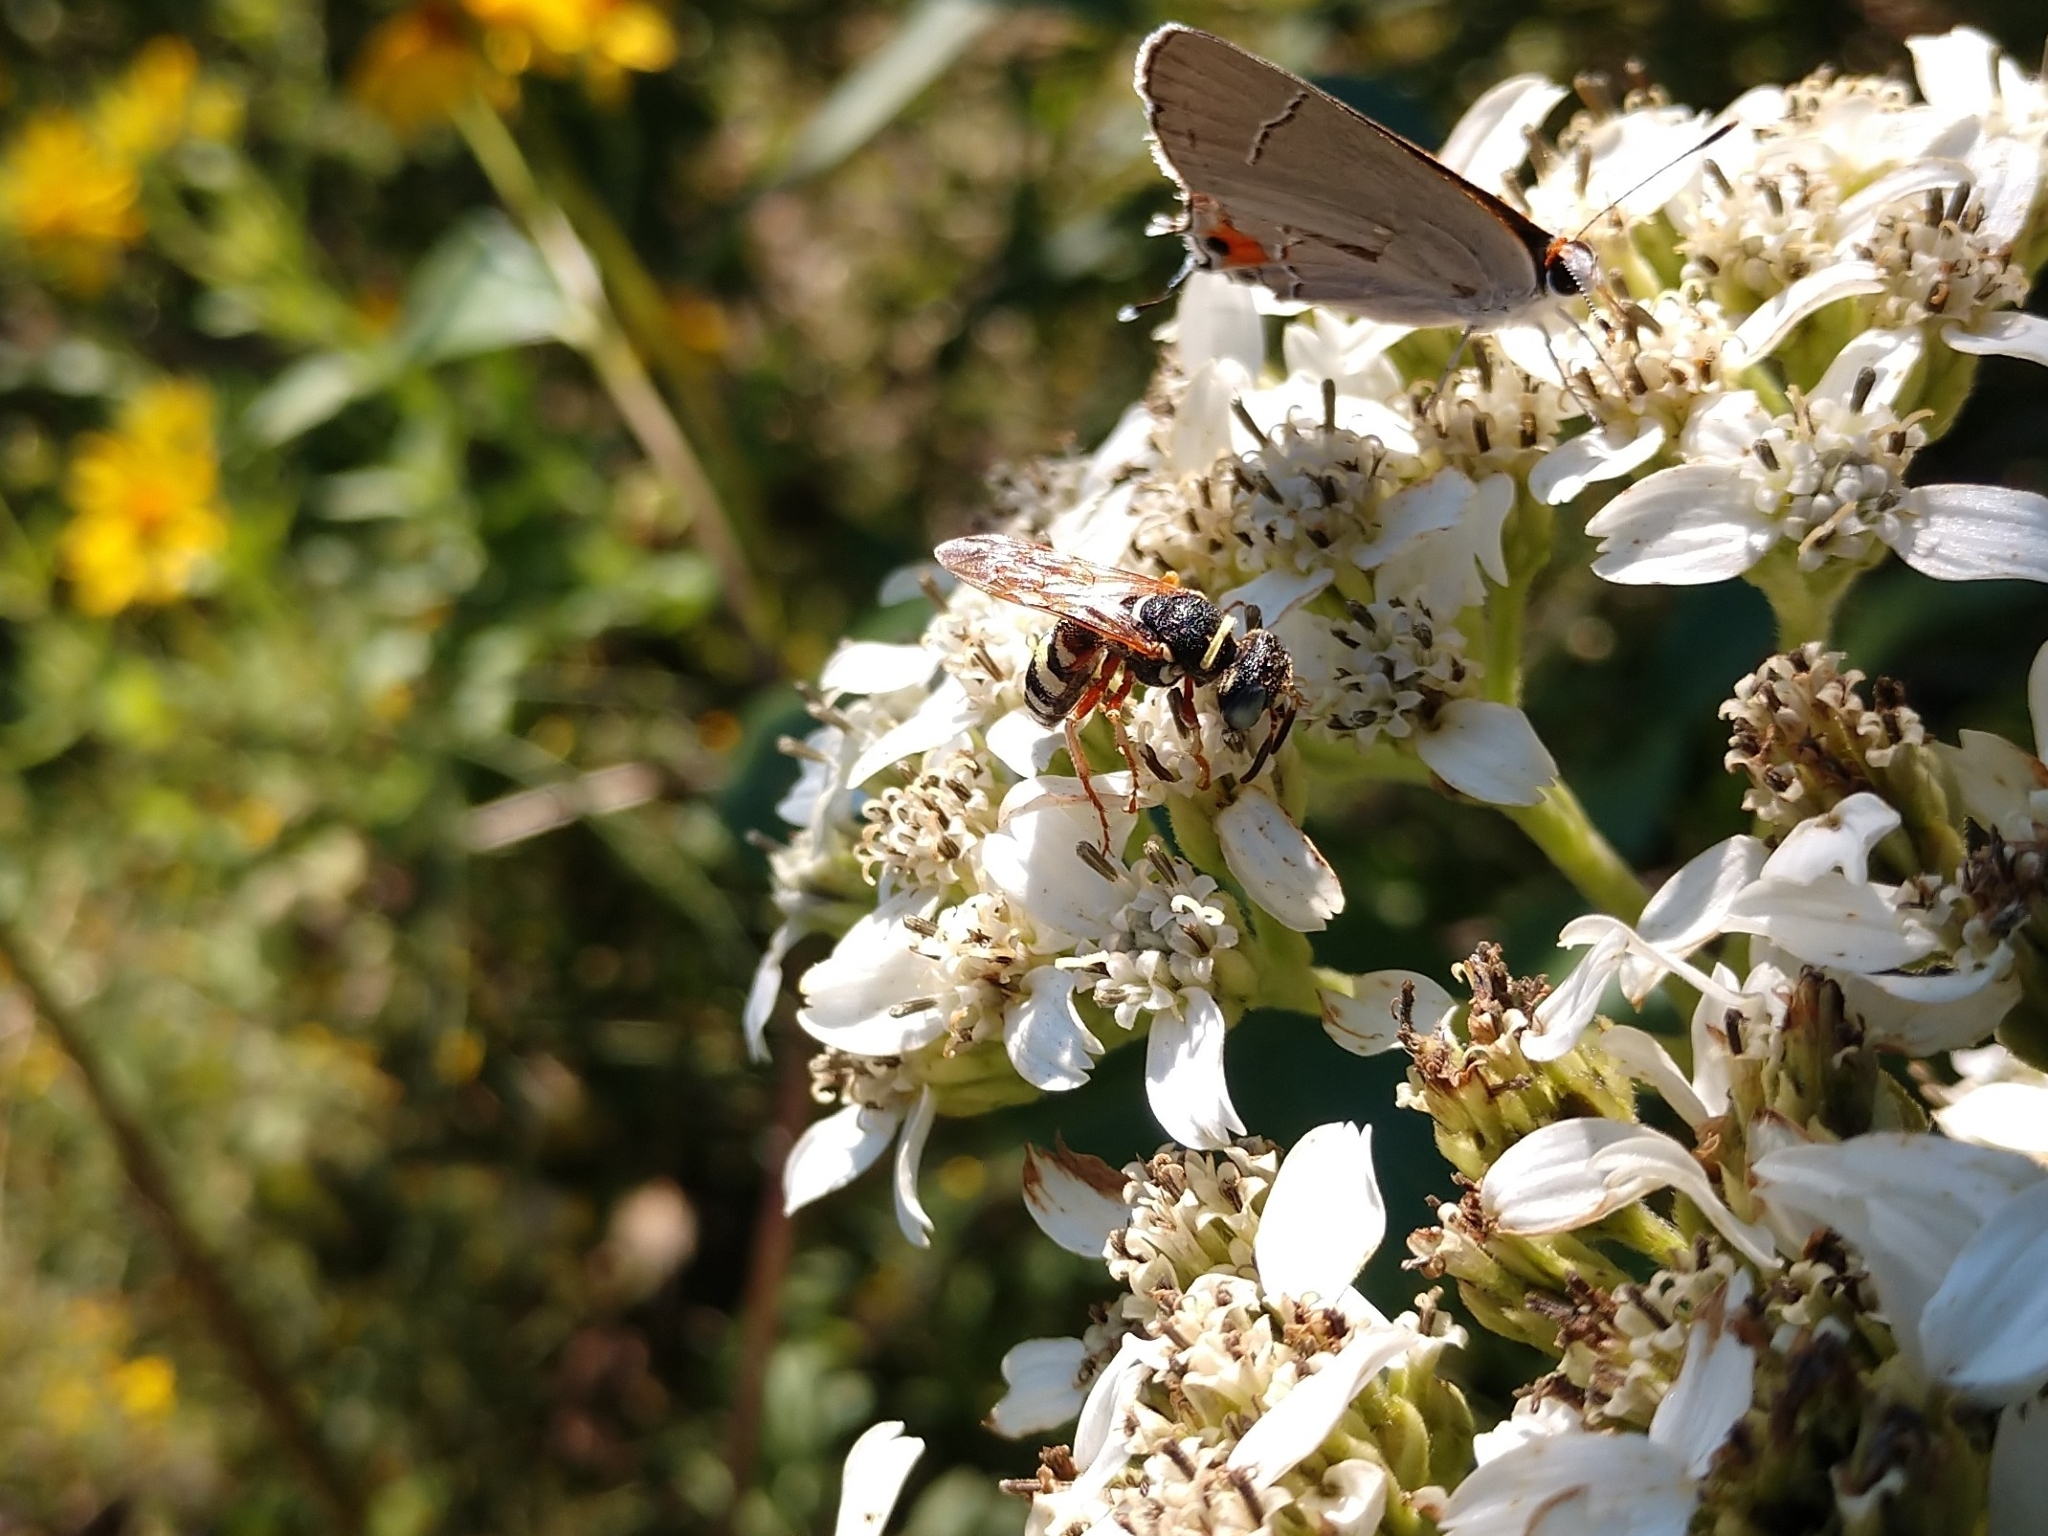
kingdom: Animalia
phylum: Arthropoda
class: Insecta
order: Hymenoptera
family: Crabronidae
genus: Philanthus
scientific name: Philanthus ventilabris
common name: Bee-killer wasp
